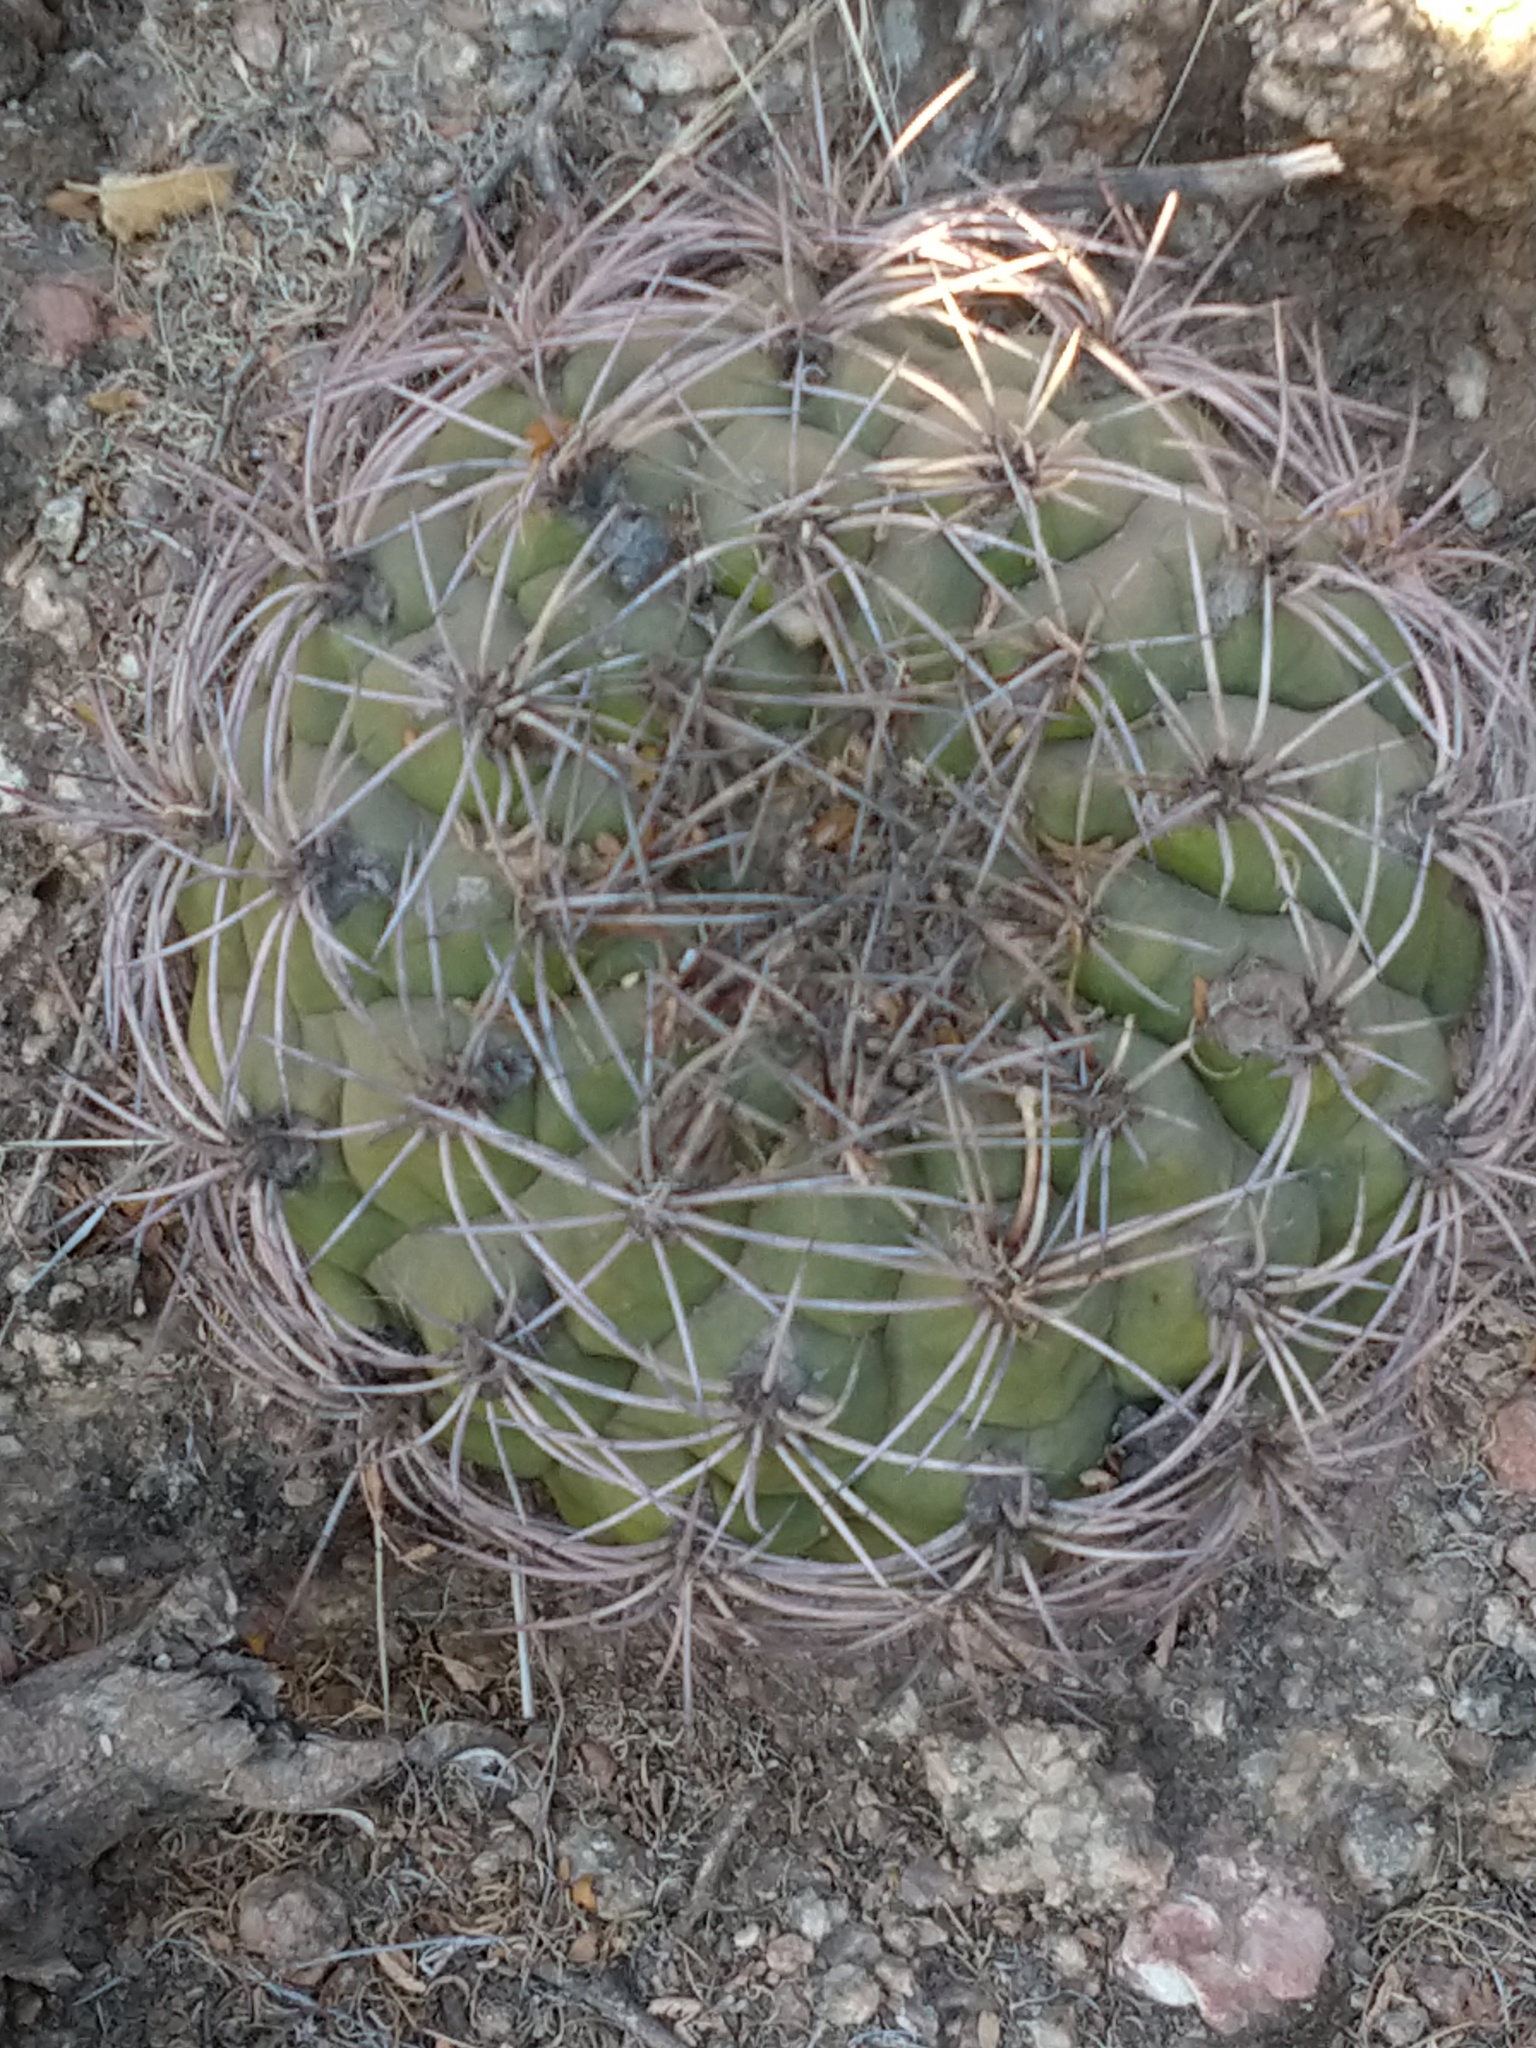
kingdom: Plantae
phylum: Tracheophyta
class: Magnoliopsida
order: Caryophyllales
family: Cactaceae
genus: Gymnocalycium
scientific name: Gymnocalycium saglionis
